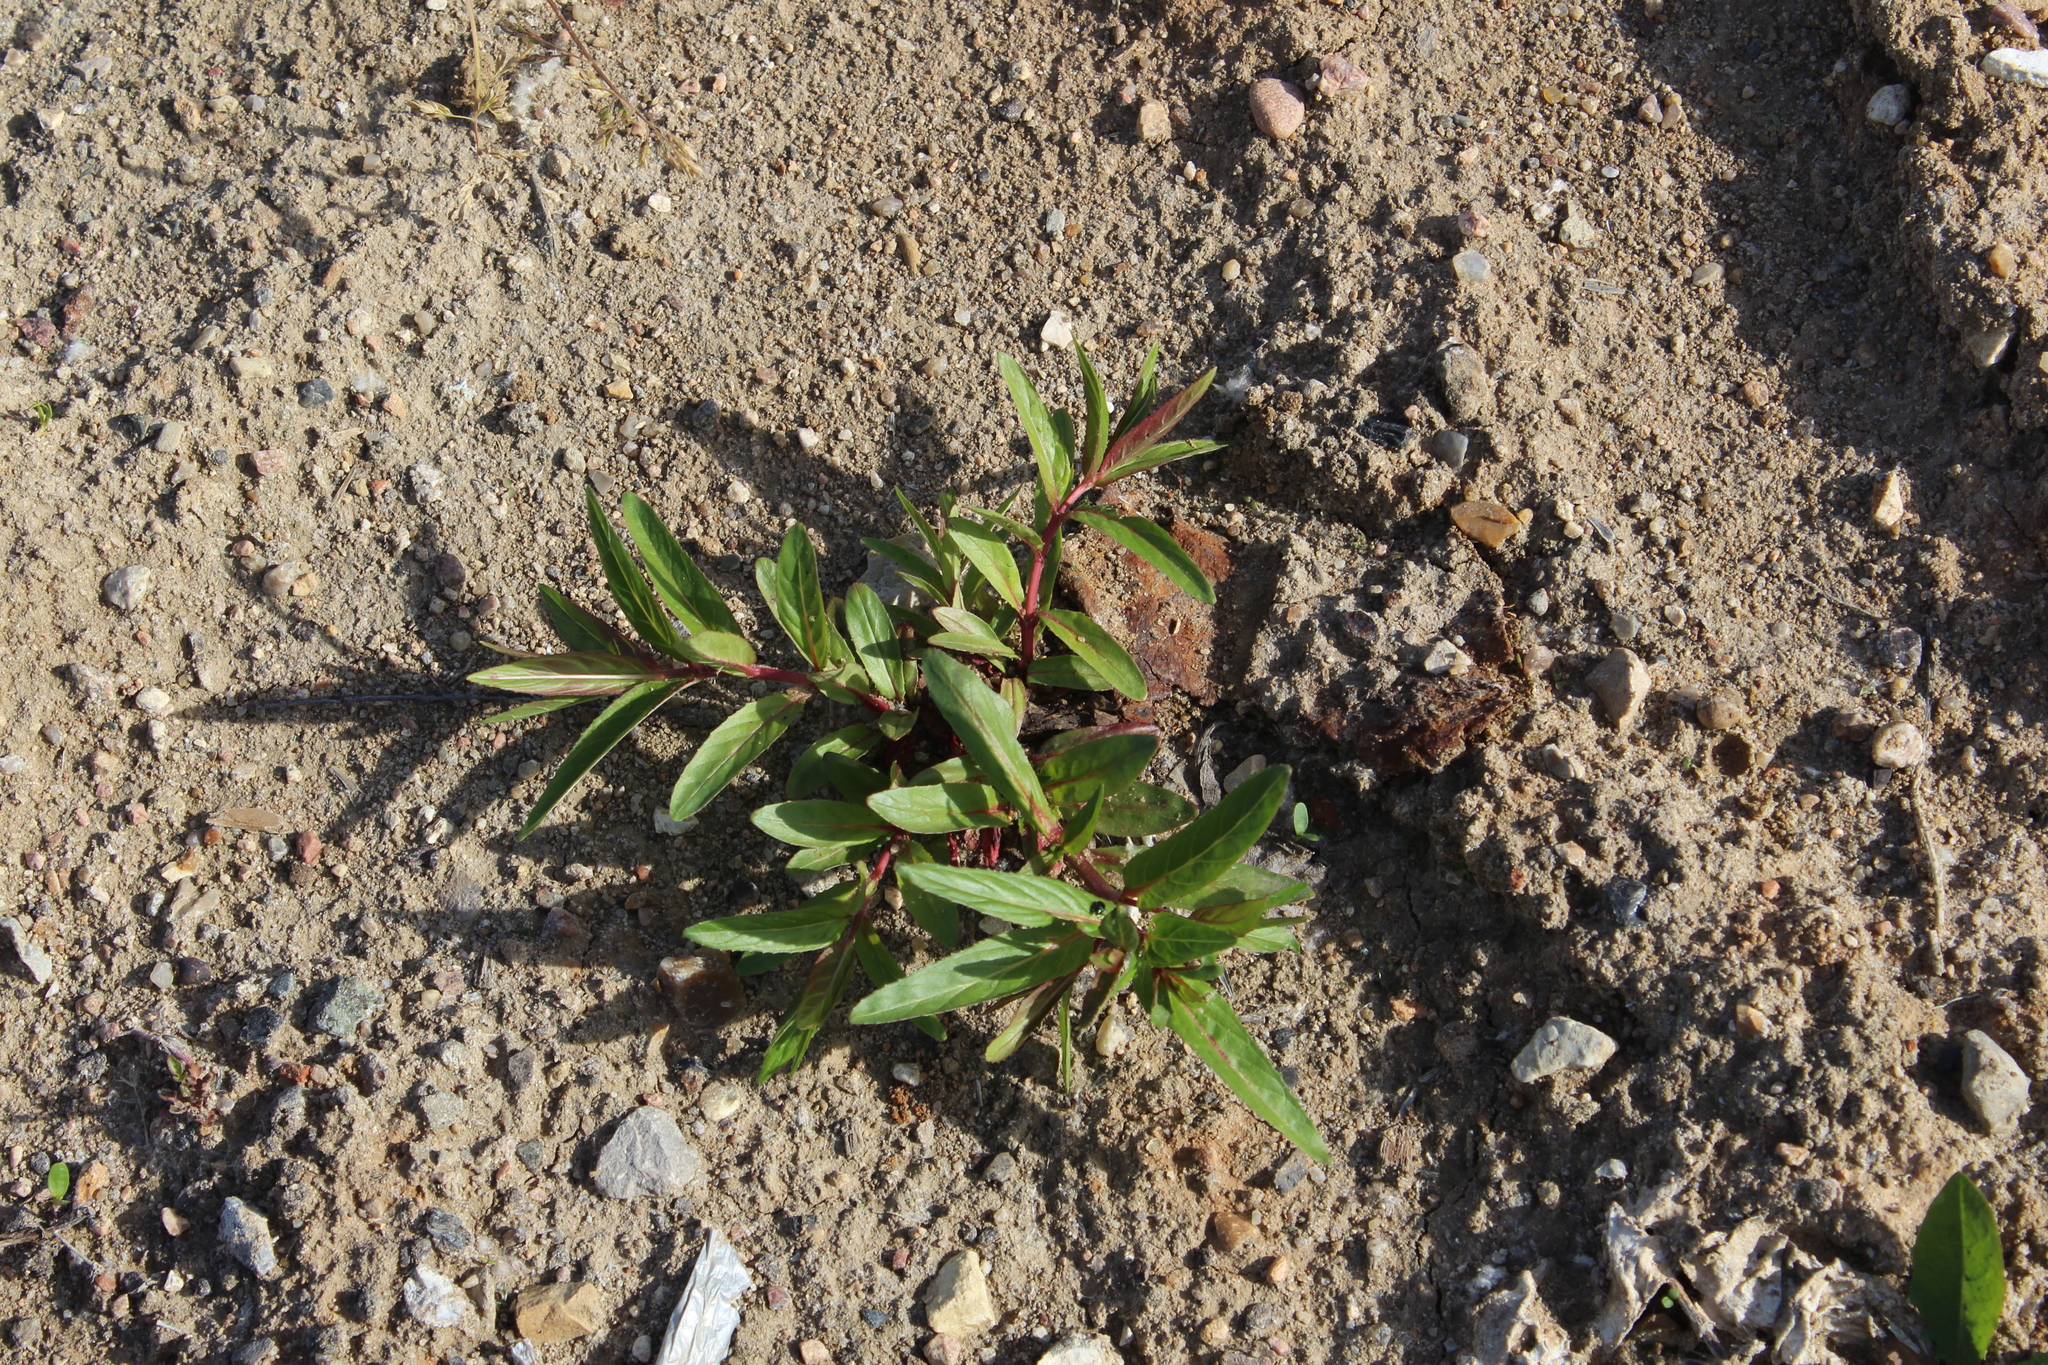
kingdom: Plantae
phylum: Tracheophyta
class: Magnoliopsida
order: Myrtales
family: Onagraceae
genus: Epilobium
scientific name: Epilobium ciliatum
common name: American willowherb
